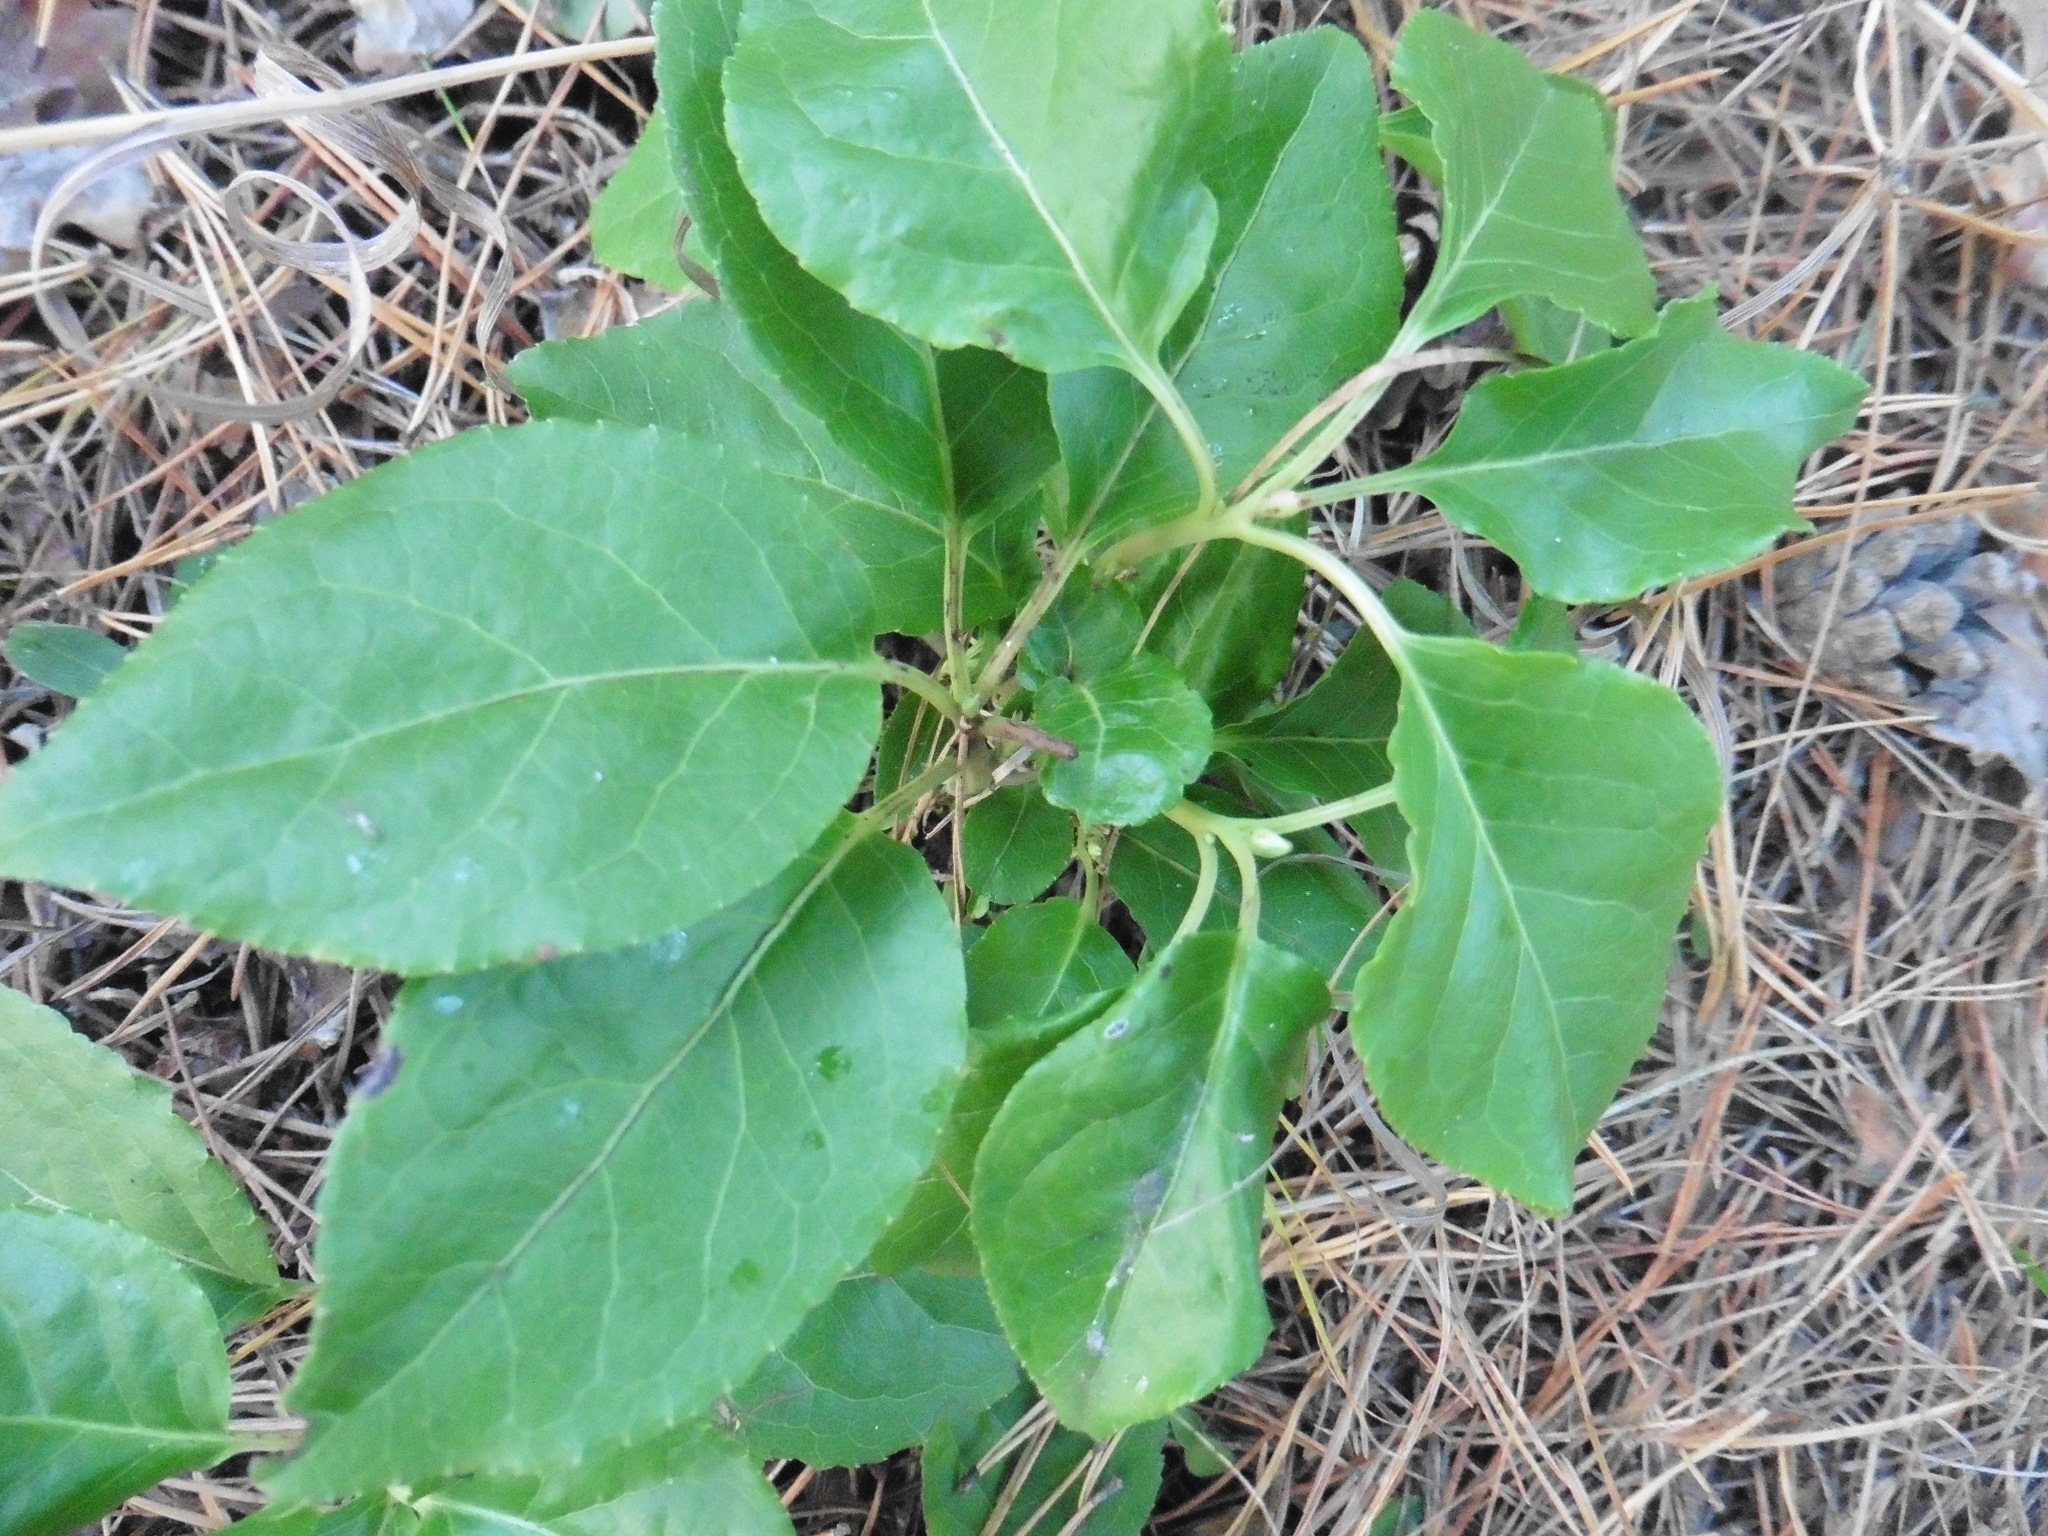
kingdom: Plantae
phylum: Tracheophyta
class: Magnoliopsida
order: Ericales
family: Ericaceae
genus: Orthilia
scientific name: Orthilia secunda
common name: One-sided orthilia
